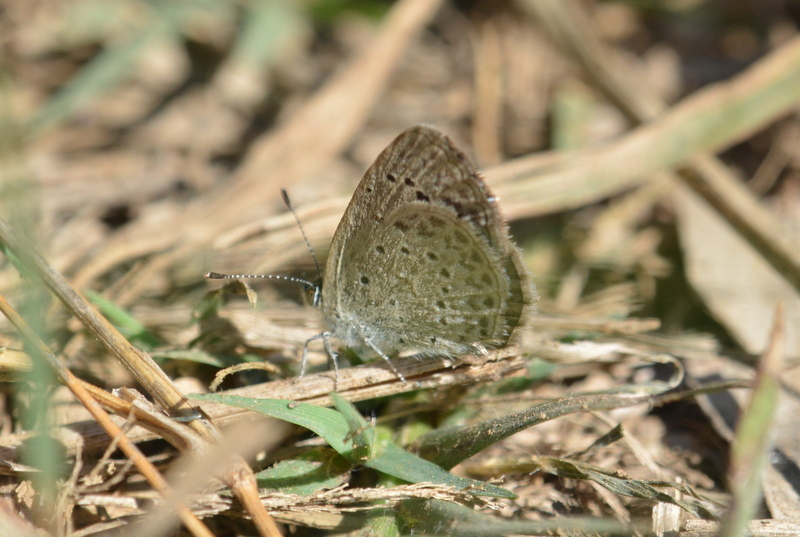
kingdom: Animalia
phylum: Arthropoda
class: Insecta
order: Lepidoptera
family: Lycaenidae
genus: Zizeeria
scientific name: Zizeeria knysna
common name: African grass blue
